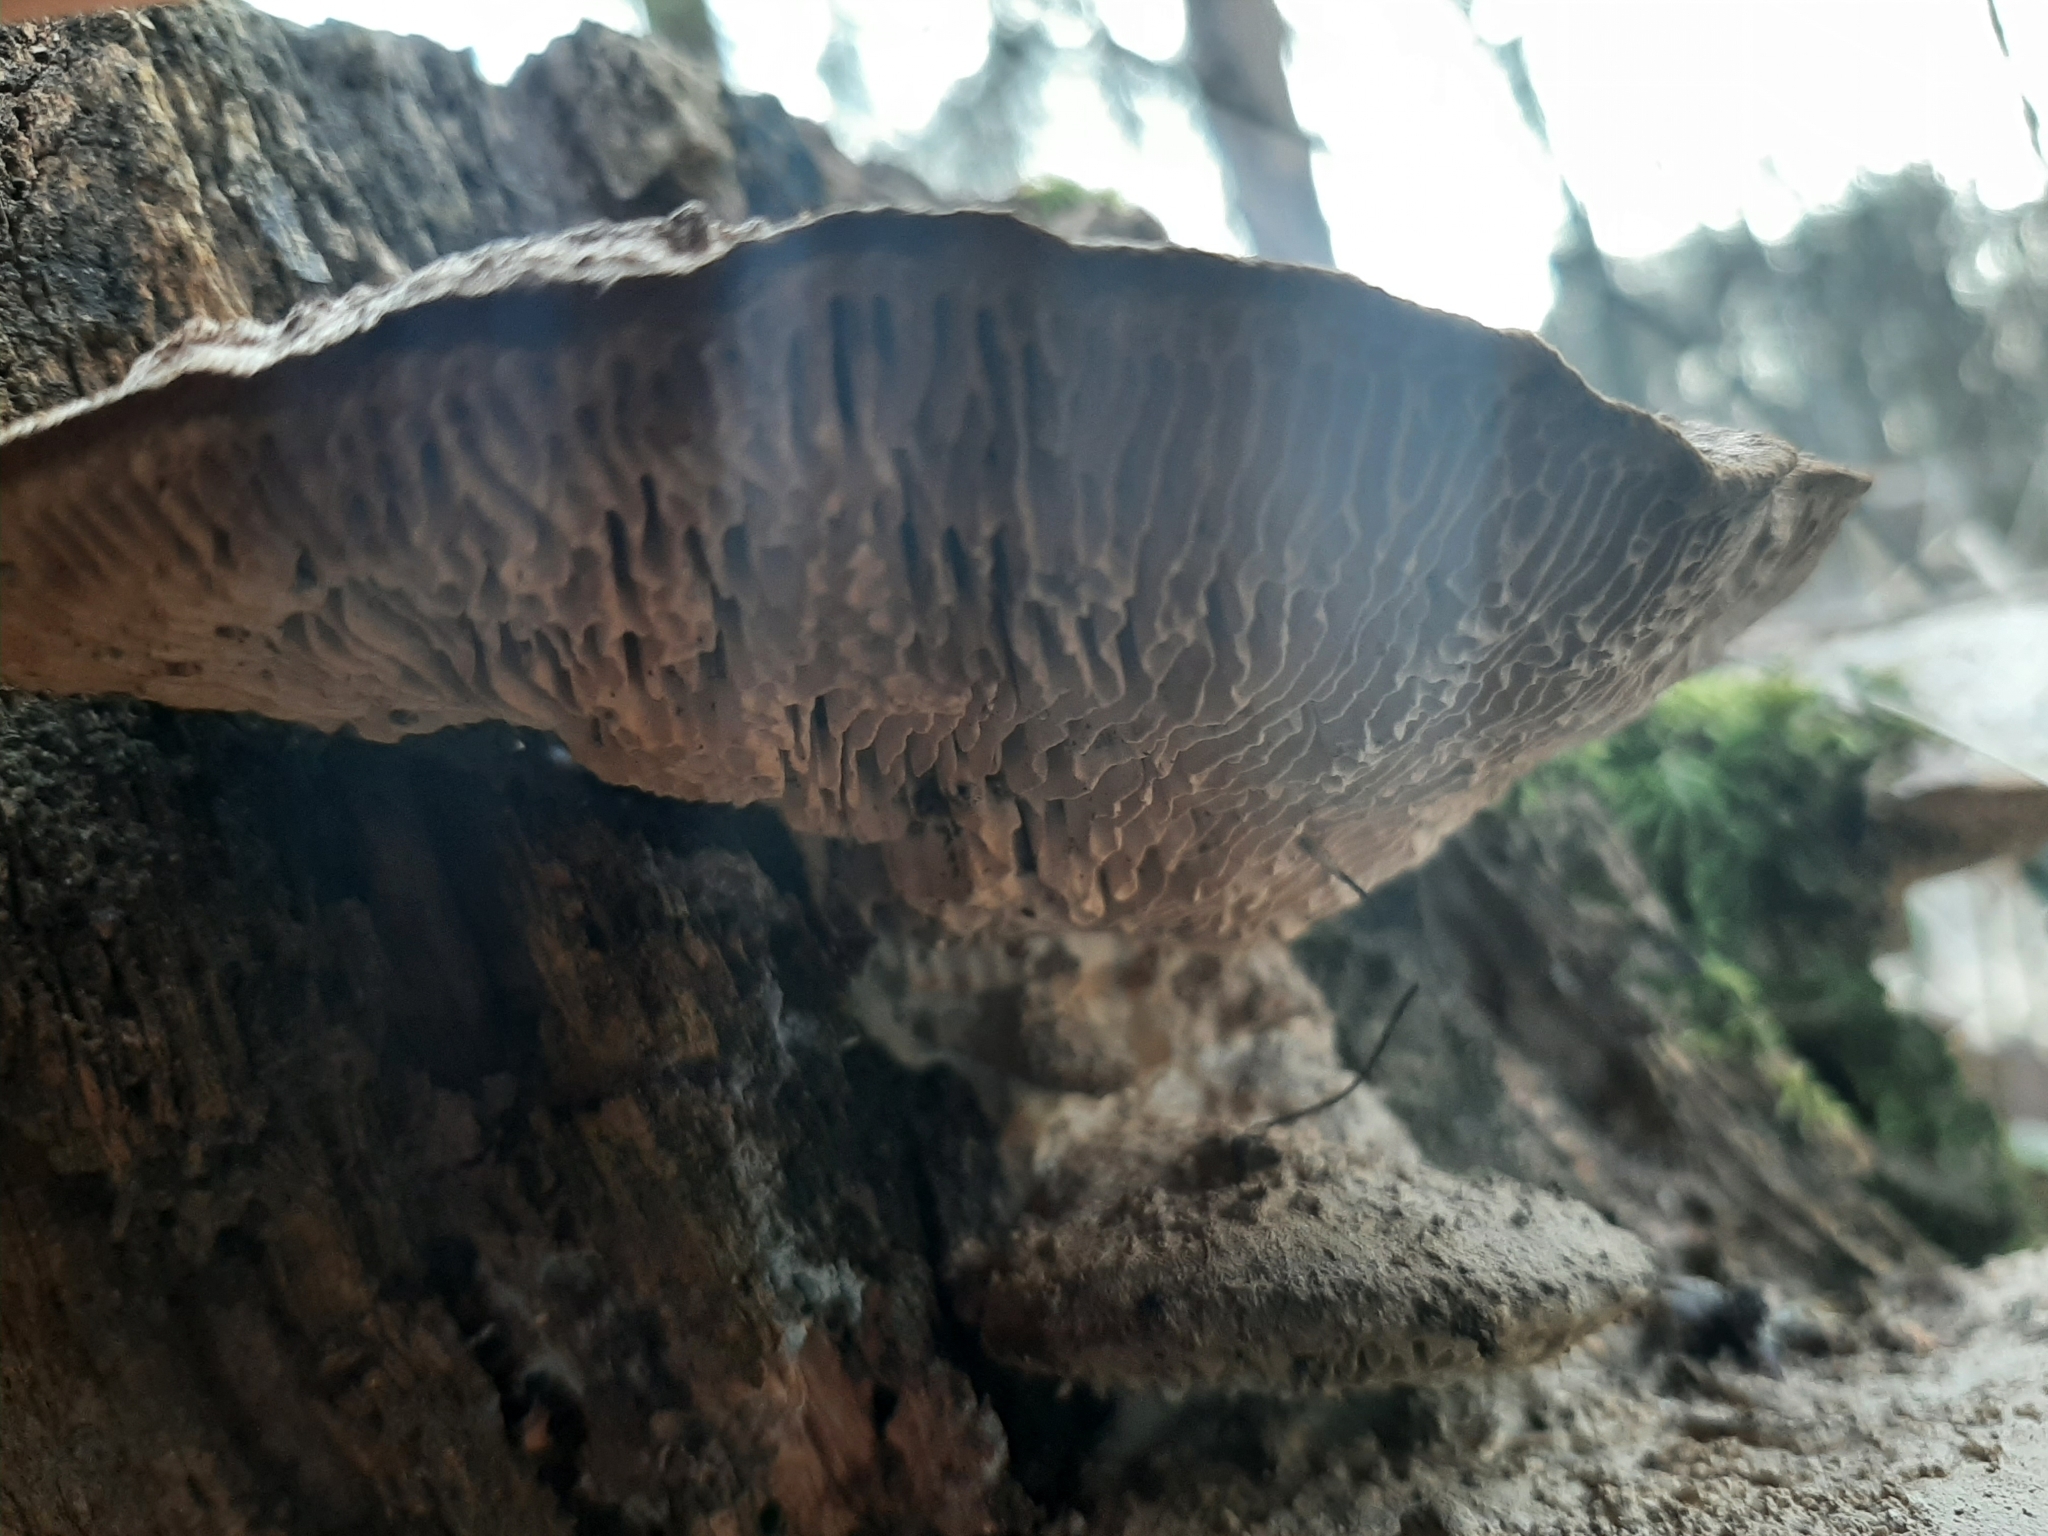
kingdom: Fungi
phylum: Basidiomycota
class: Agaricomycetes
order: Polyporales
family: Fomitopsidaceae
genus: Fomitopsis
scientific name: Fomitopsis
